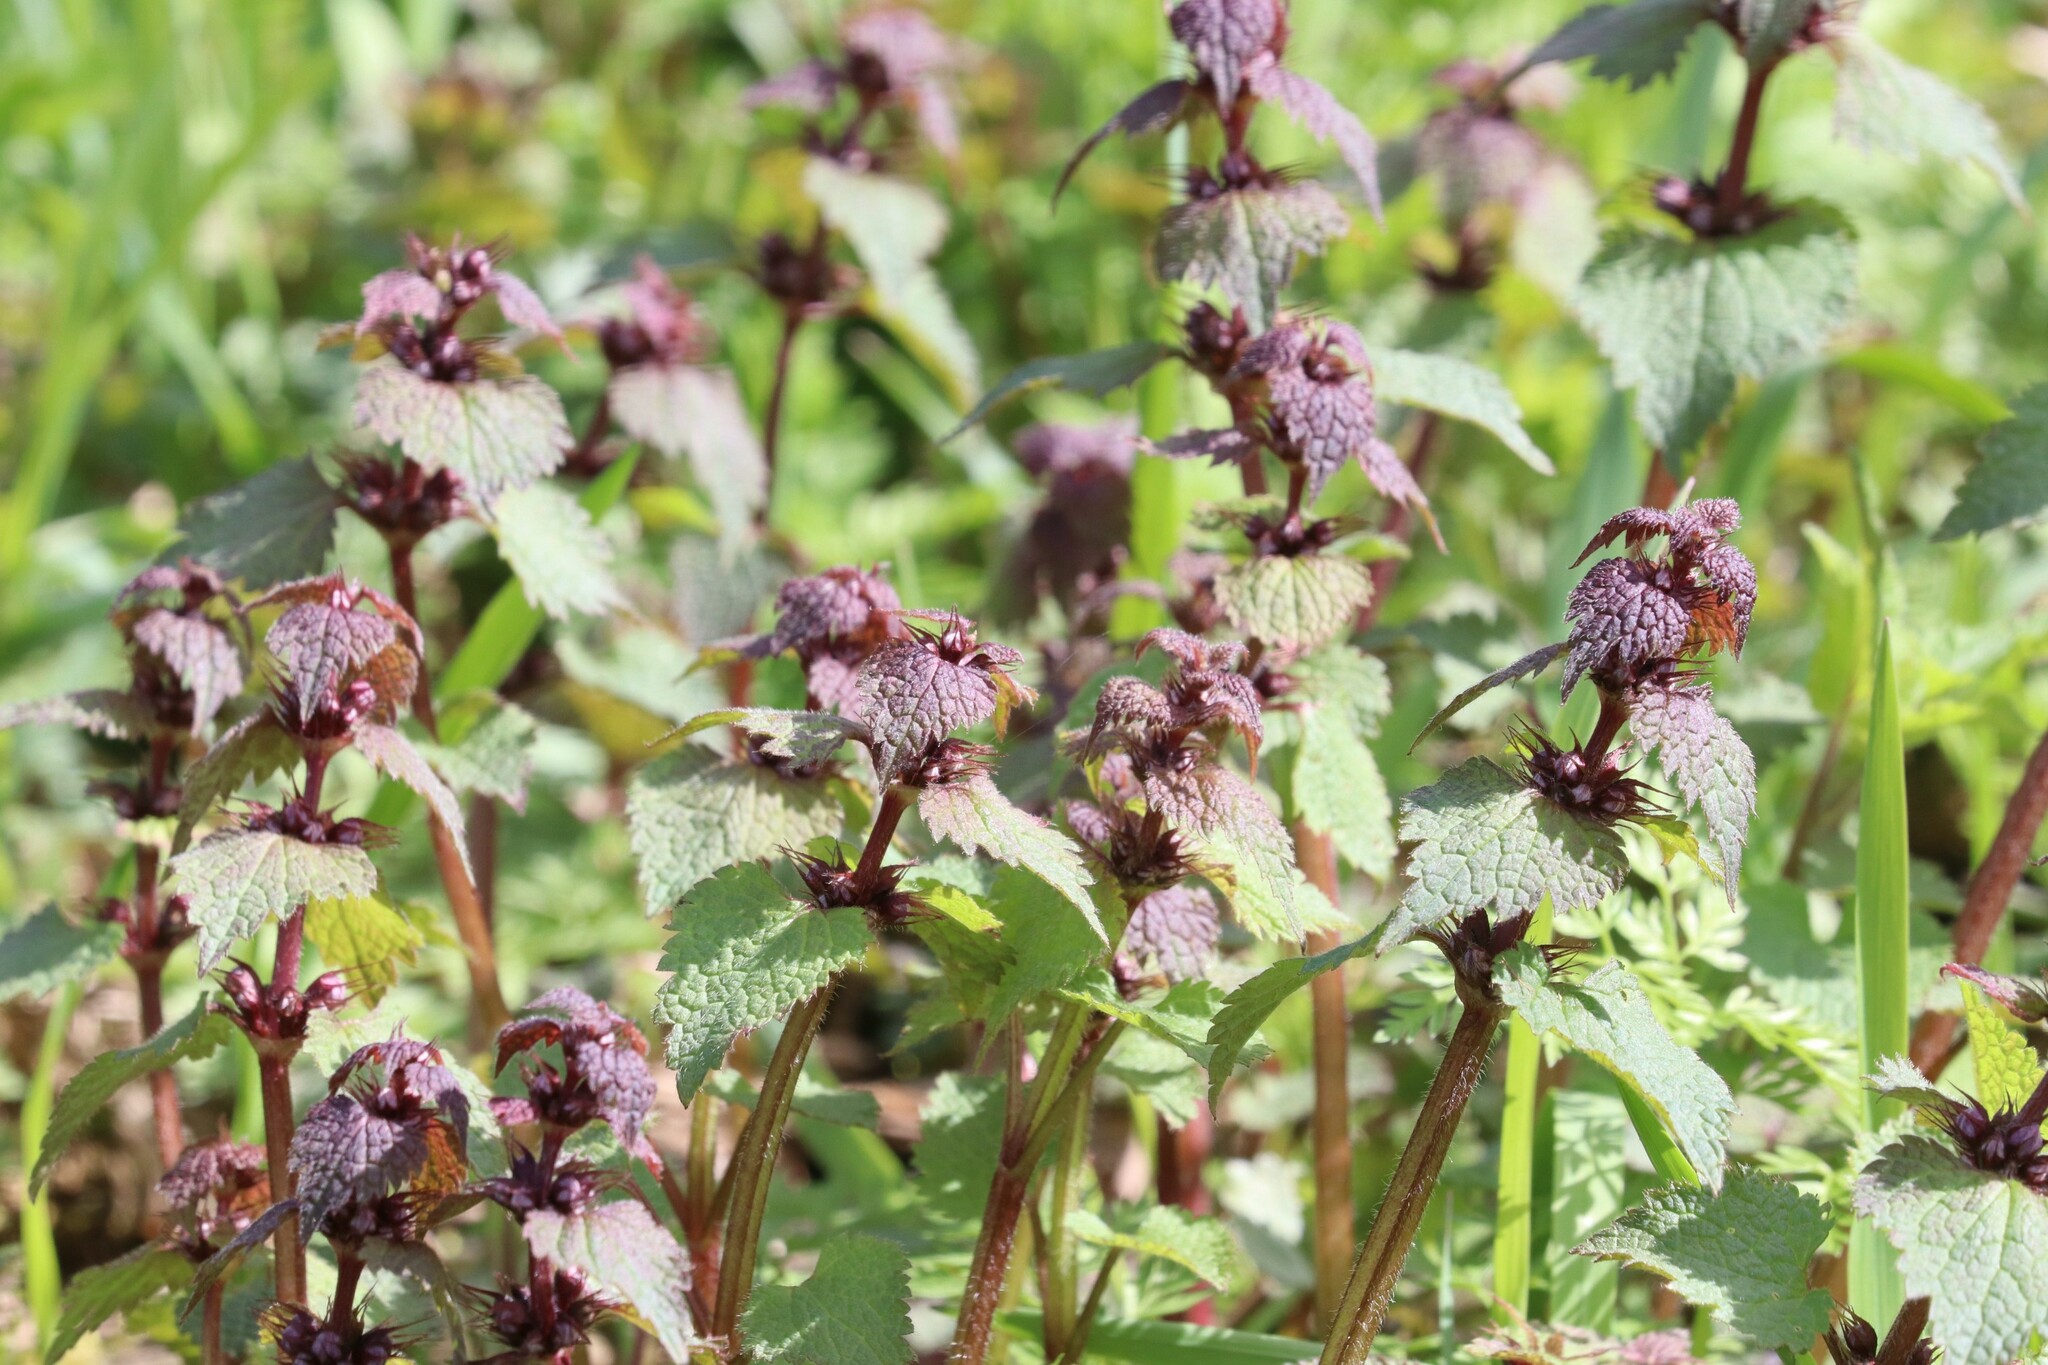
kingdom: Plantae
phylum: Tracheophyta
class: Magnoliopsida
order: Lamiales
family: Lamiaceae
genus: Lamium
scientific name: Lamium maculatum
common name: Spotted dead-nettle
